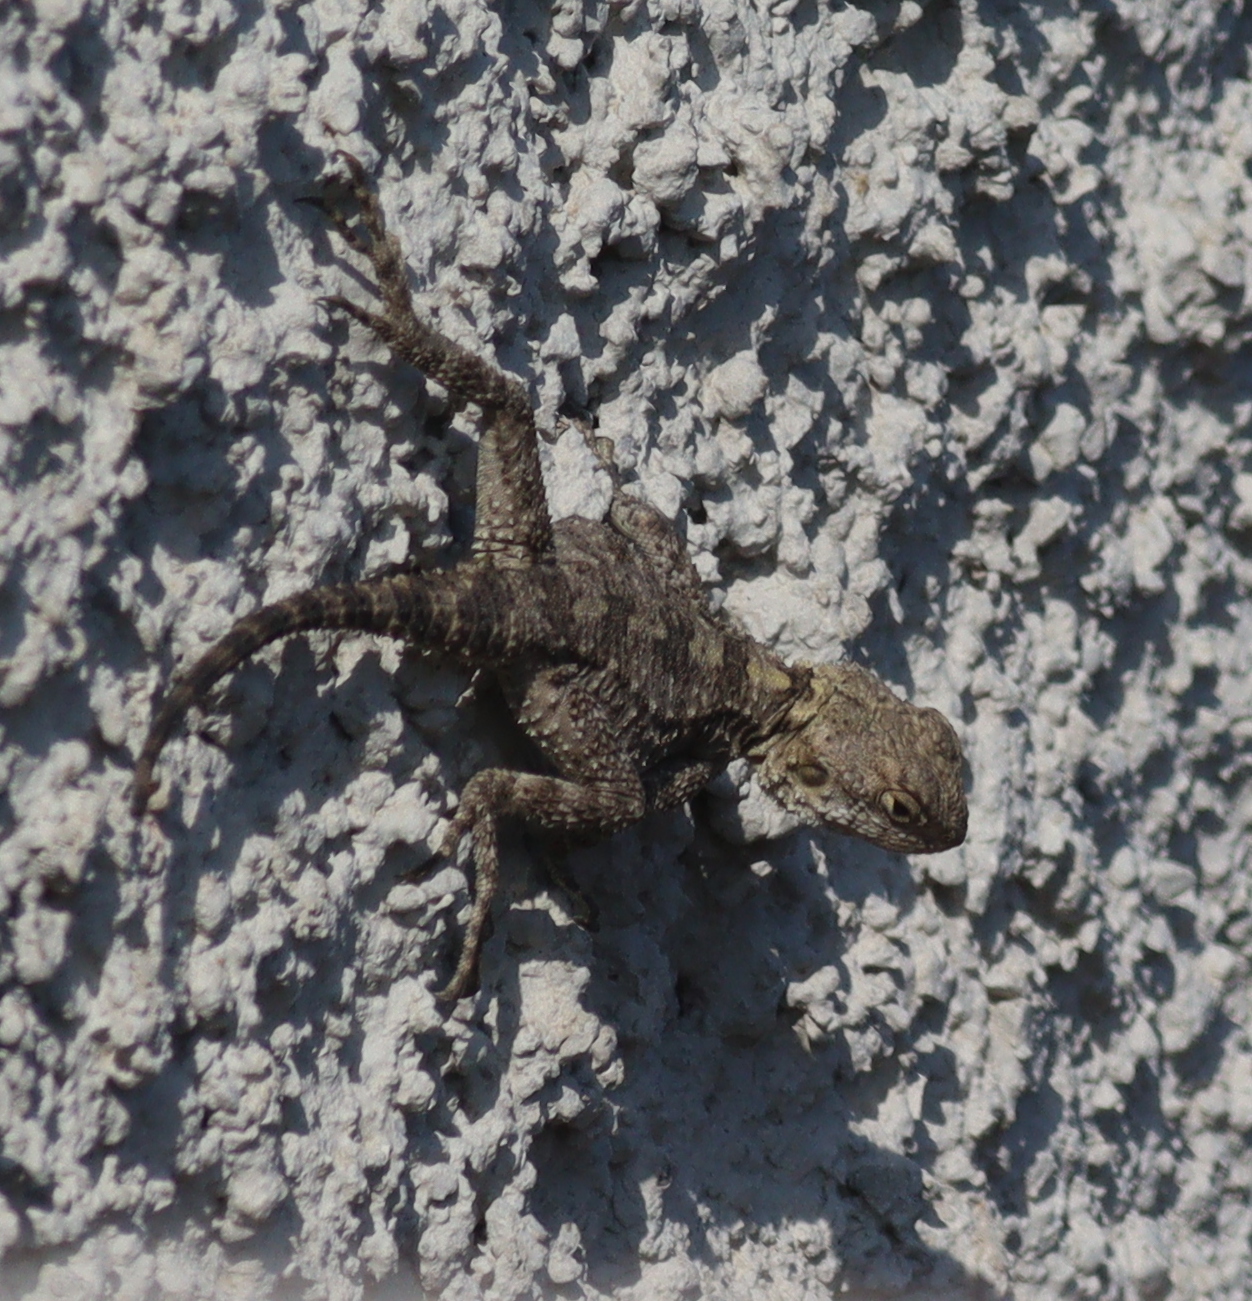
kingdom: Animalia
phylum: Chordata
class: Squamata
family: Agamidae
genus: Stellagama
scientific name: Stellagama stellio
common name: Starred agama
